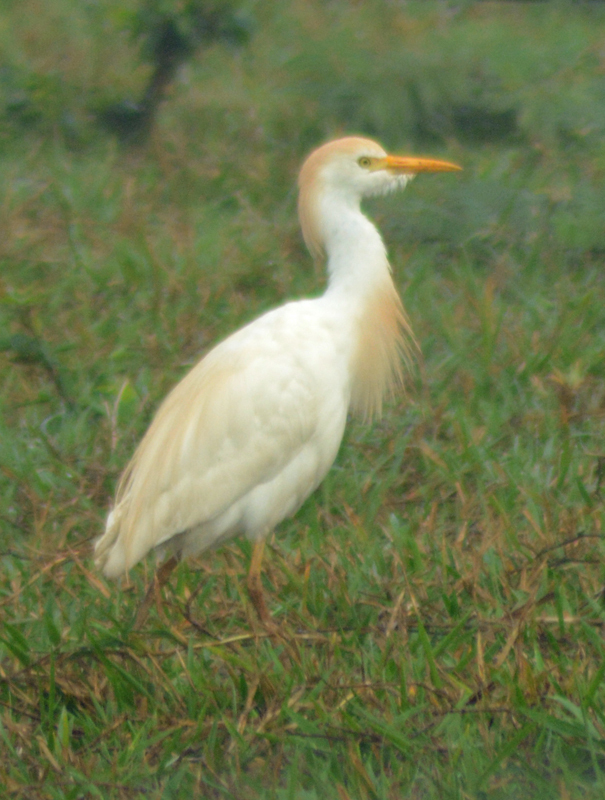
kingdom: Animalia
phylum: Chordata
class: Aves
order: Pelecaniformes
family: Ardeidae
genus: Bubulcus
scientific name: Bubulcus ibis
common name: Cattle egret
